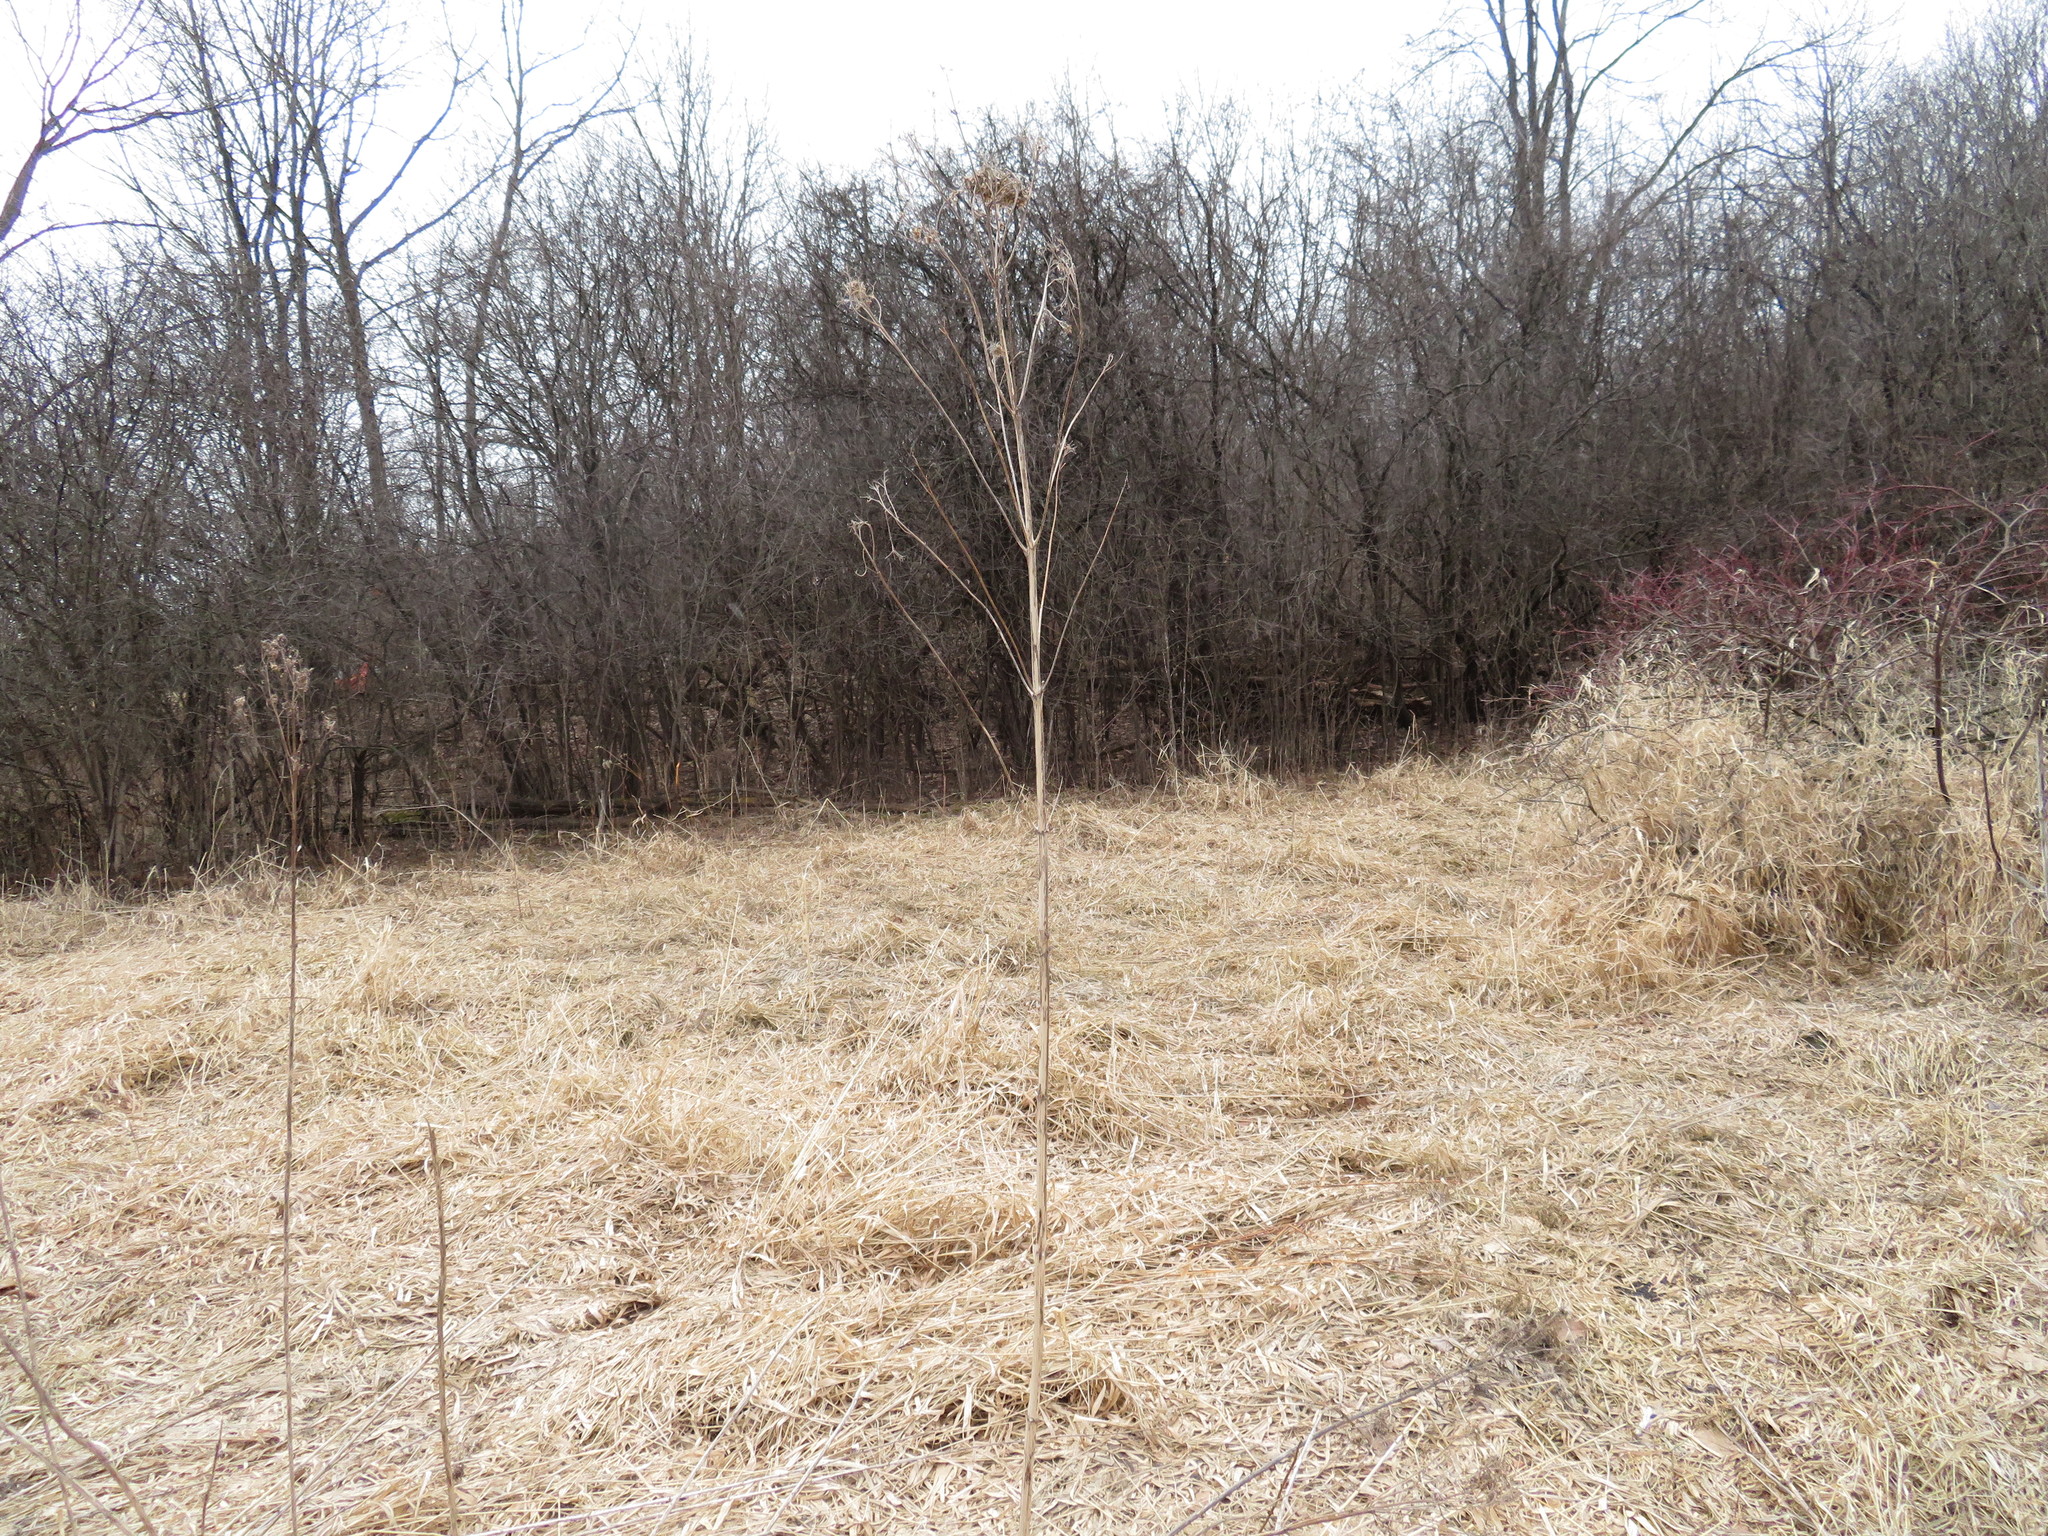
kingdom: Plantae
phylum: Tracheophyta
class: Liliopsida
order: Poales
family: Poaceae
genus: Phalaris
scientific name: Phalaris arundinacea
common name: Reed canary-grass
